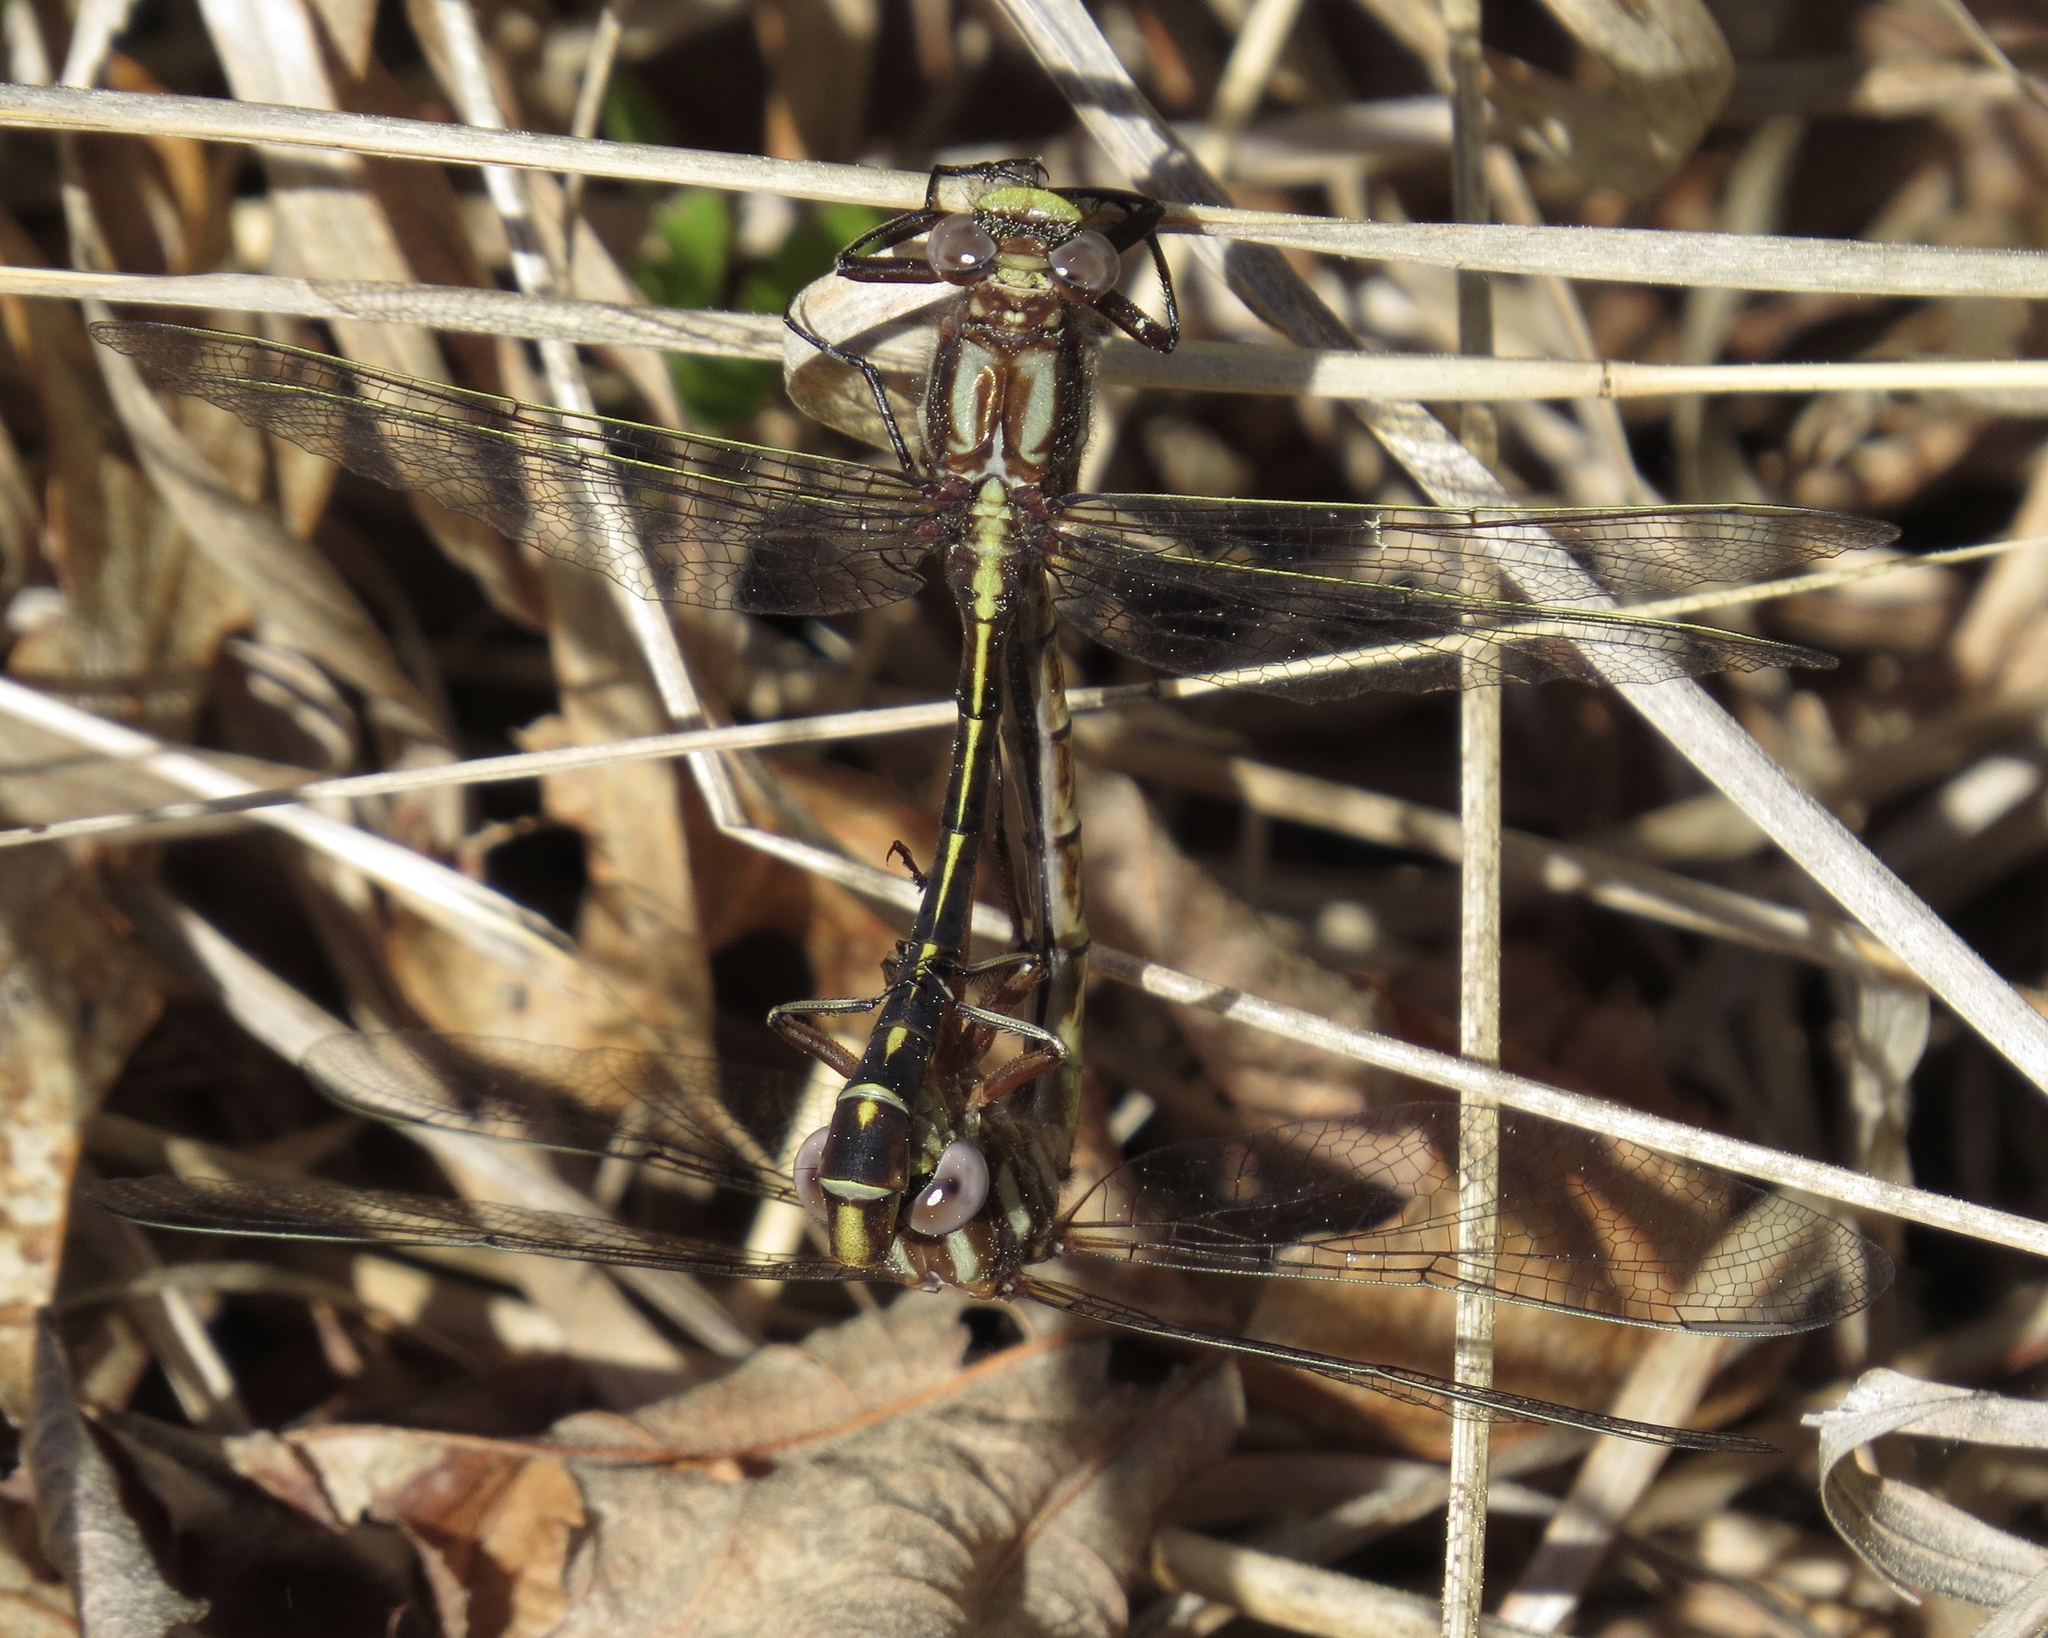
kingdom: Animalia
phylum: Arthropoda
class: Insecta
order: Odonata
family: Gomphidae
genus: Phanogomphus
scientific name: Phanogomphus exilis
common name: Lancet clubtail
